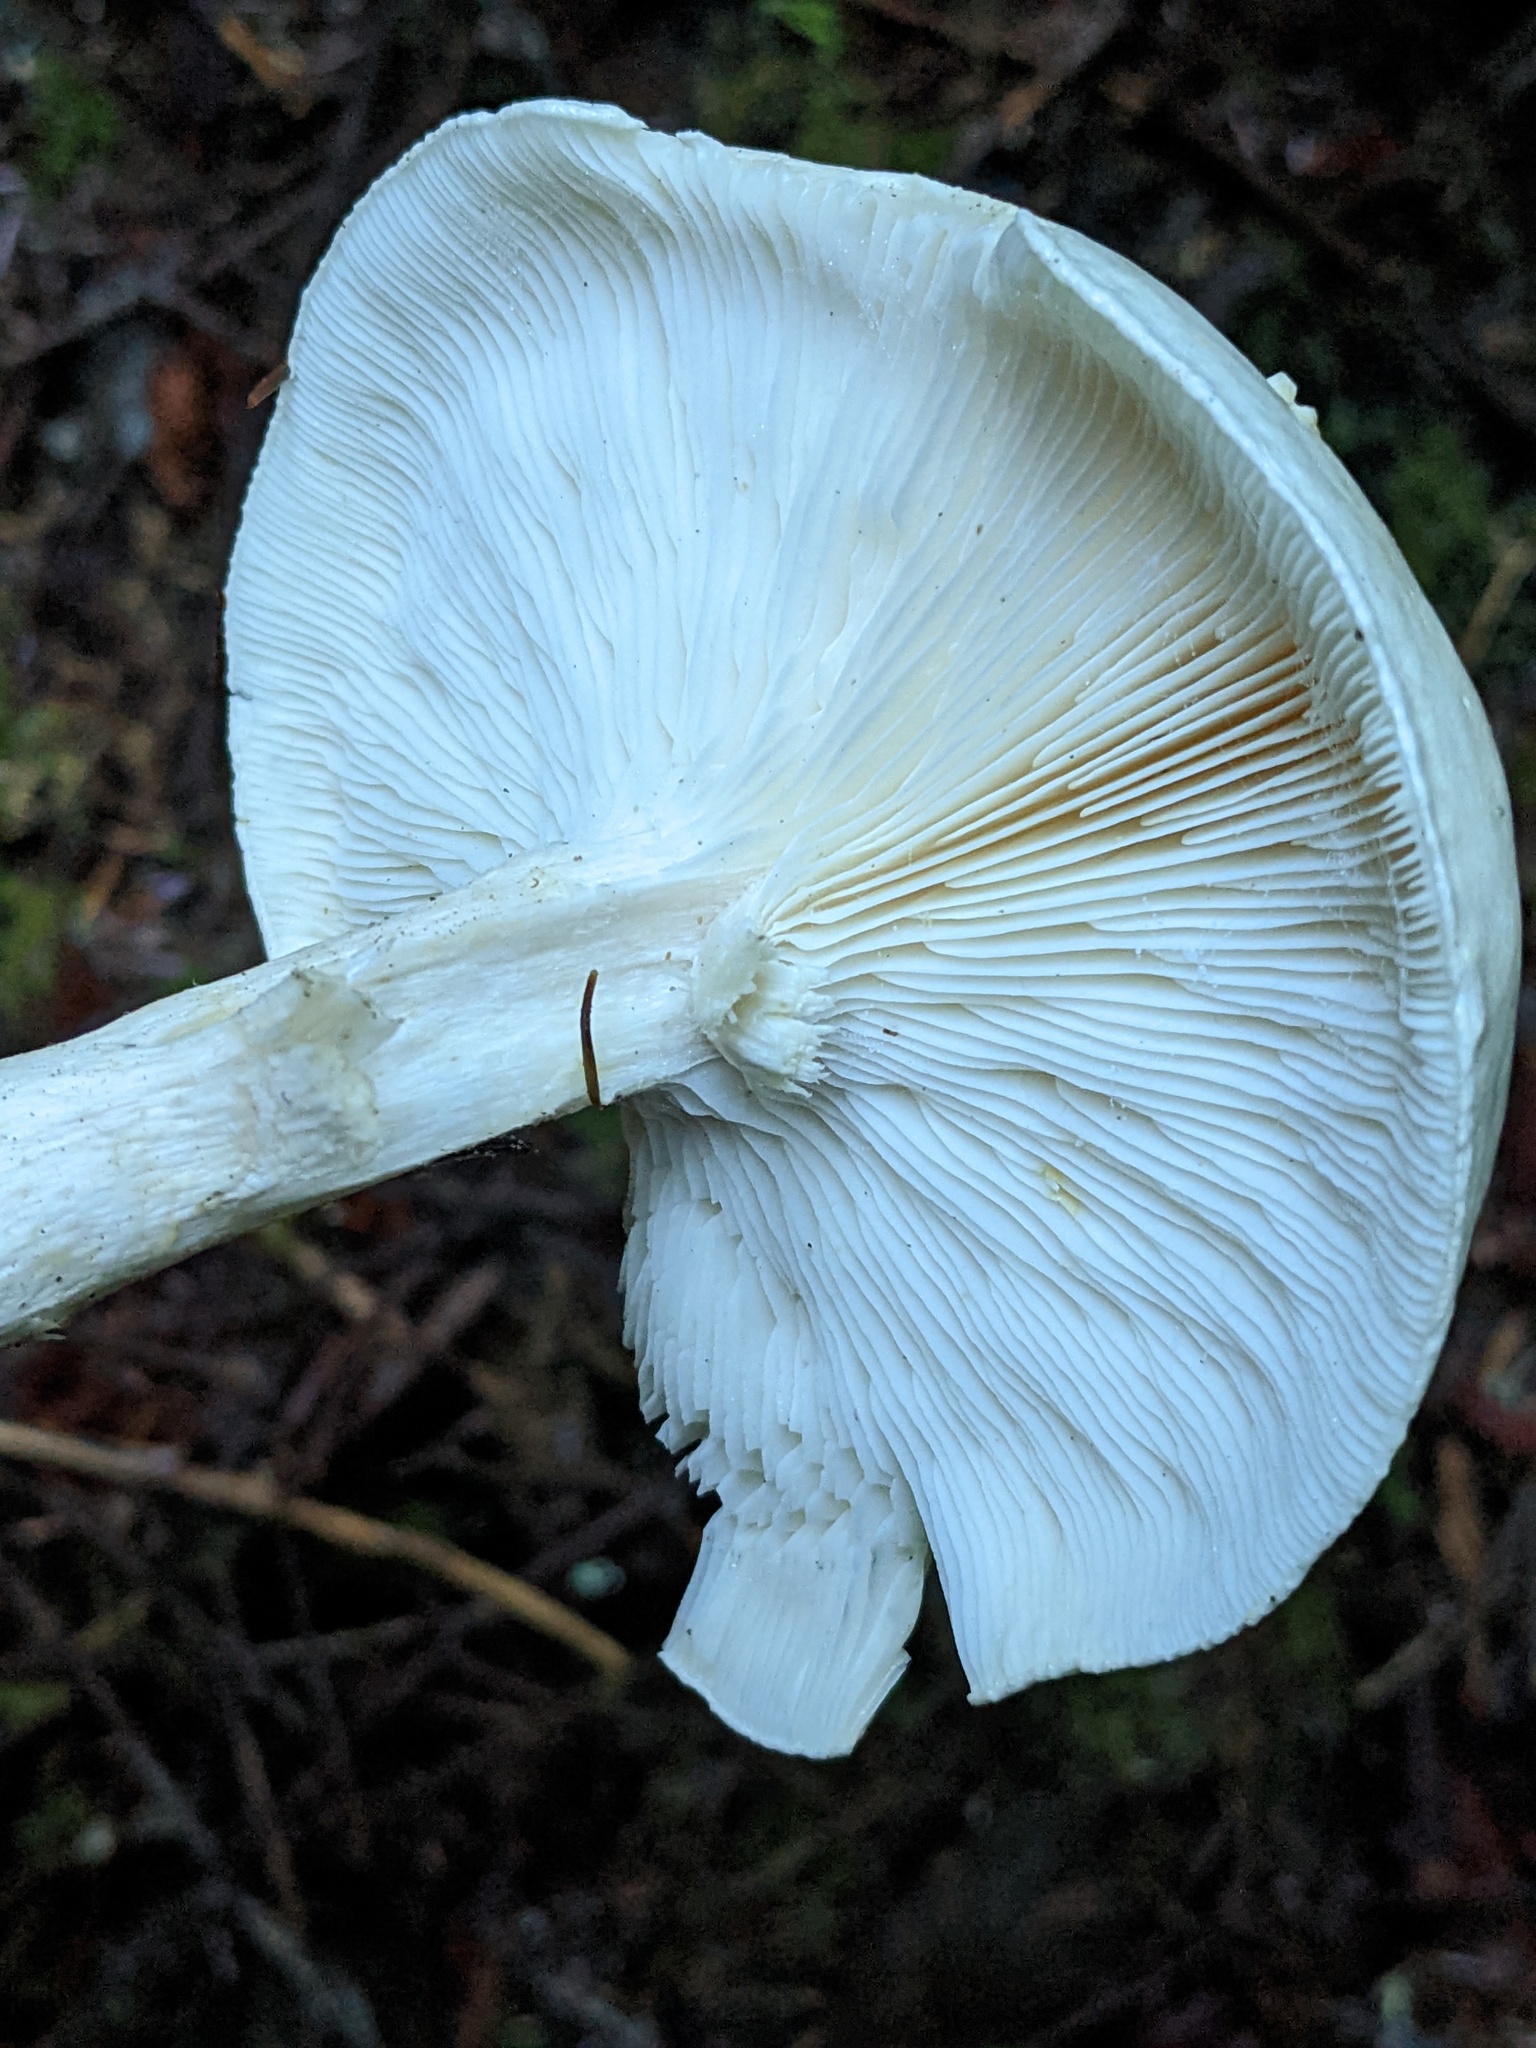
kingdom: Fungi
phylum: Basidiomycota
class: Agaricomycetes
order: Agaricales
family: Tricholomataceae
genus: Leucopaxillus
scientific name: Leucopaxillus albissimus
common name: Large white leucopax
